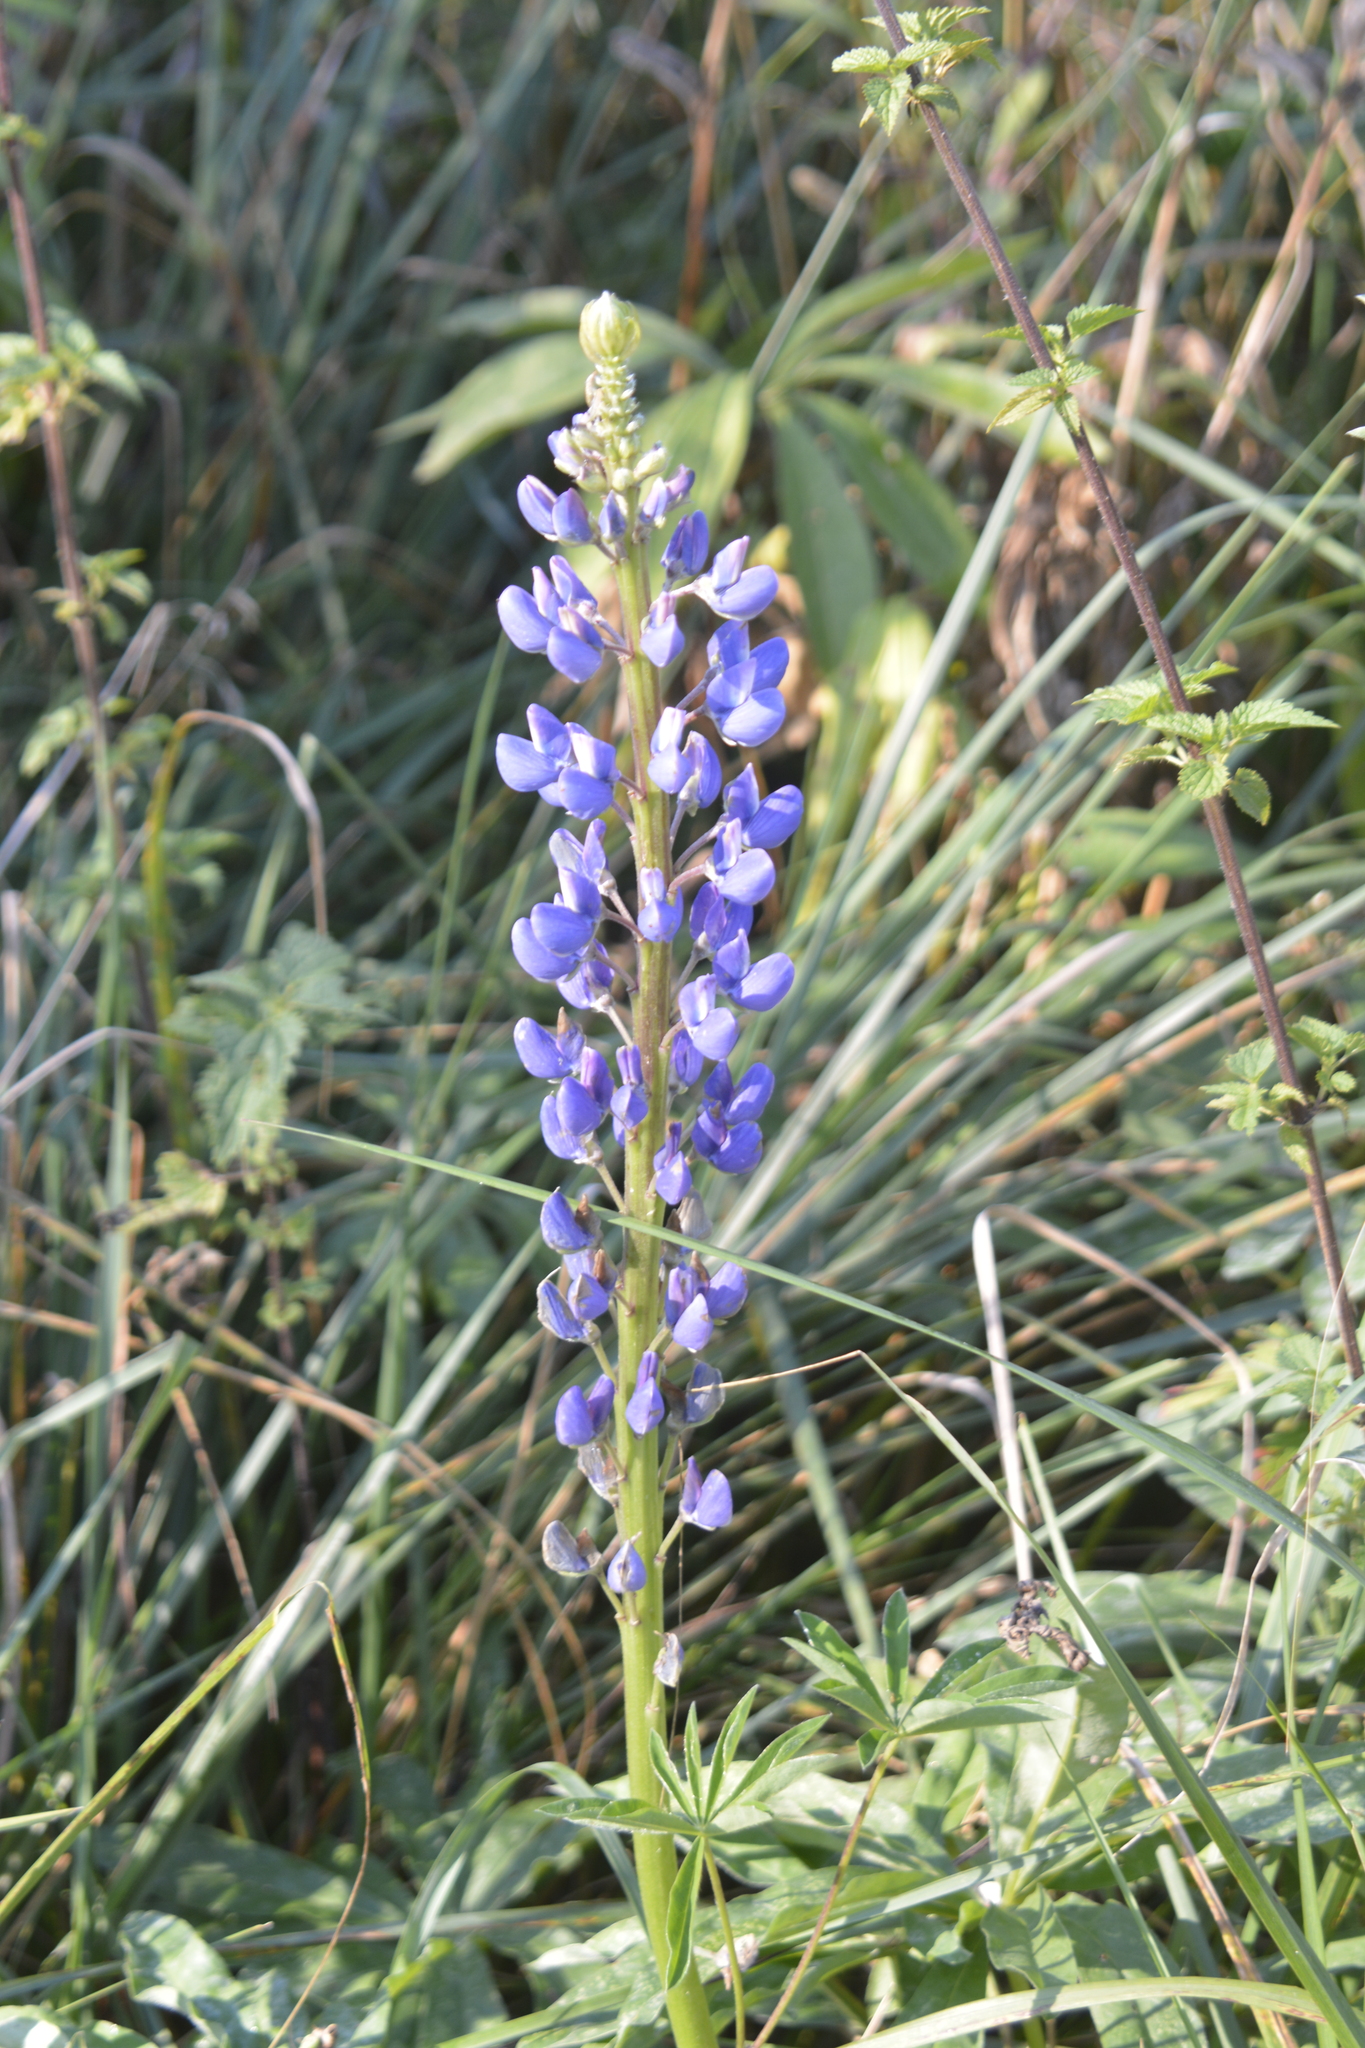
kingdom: Plantae
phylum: Tracheophyta
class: Magnoliopsida
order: Fabales
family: Fabaceae
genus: Lupinus
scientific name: Lupinus polyphyllus
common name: Garden lupin
